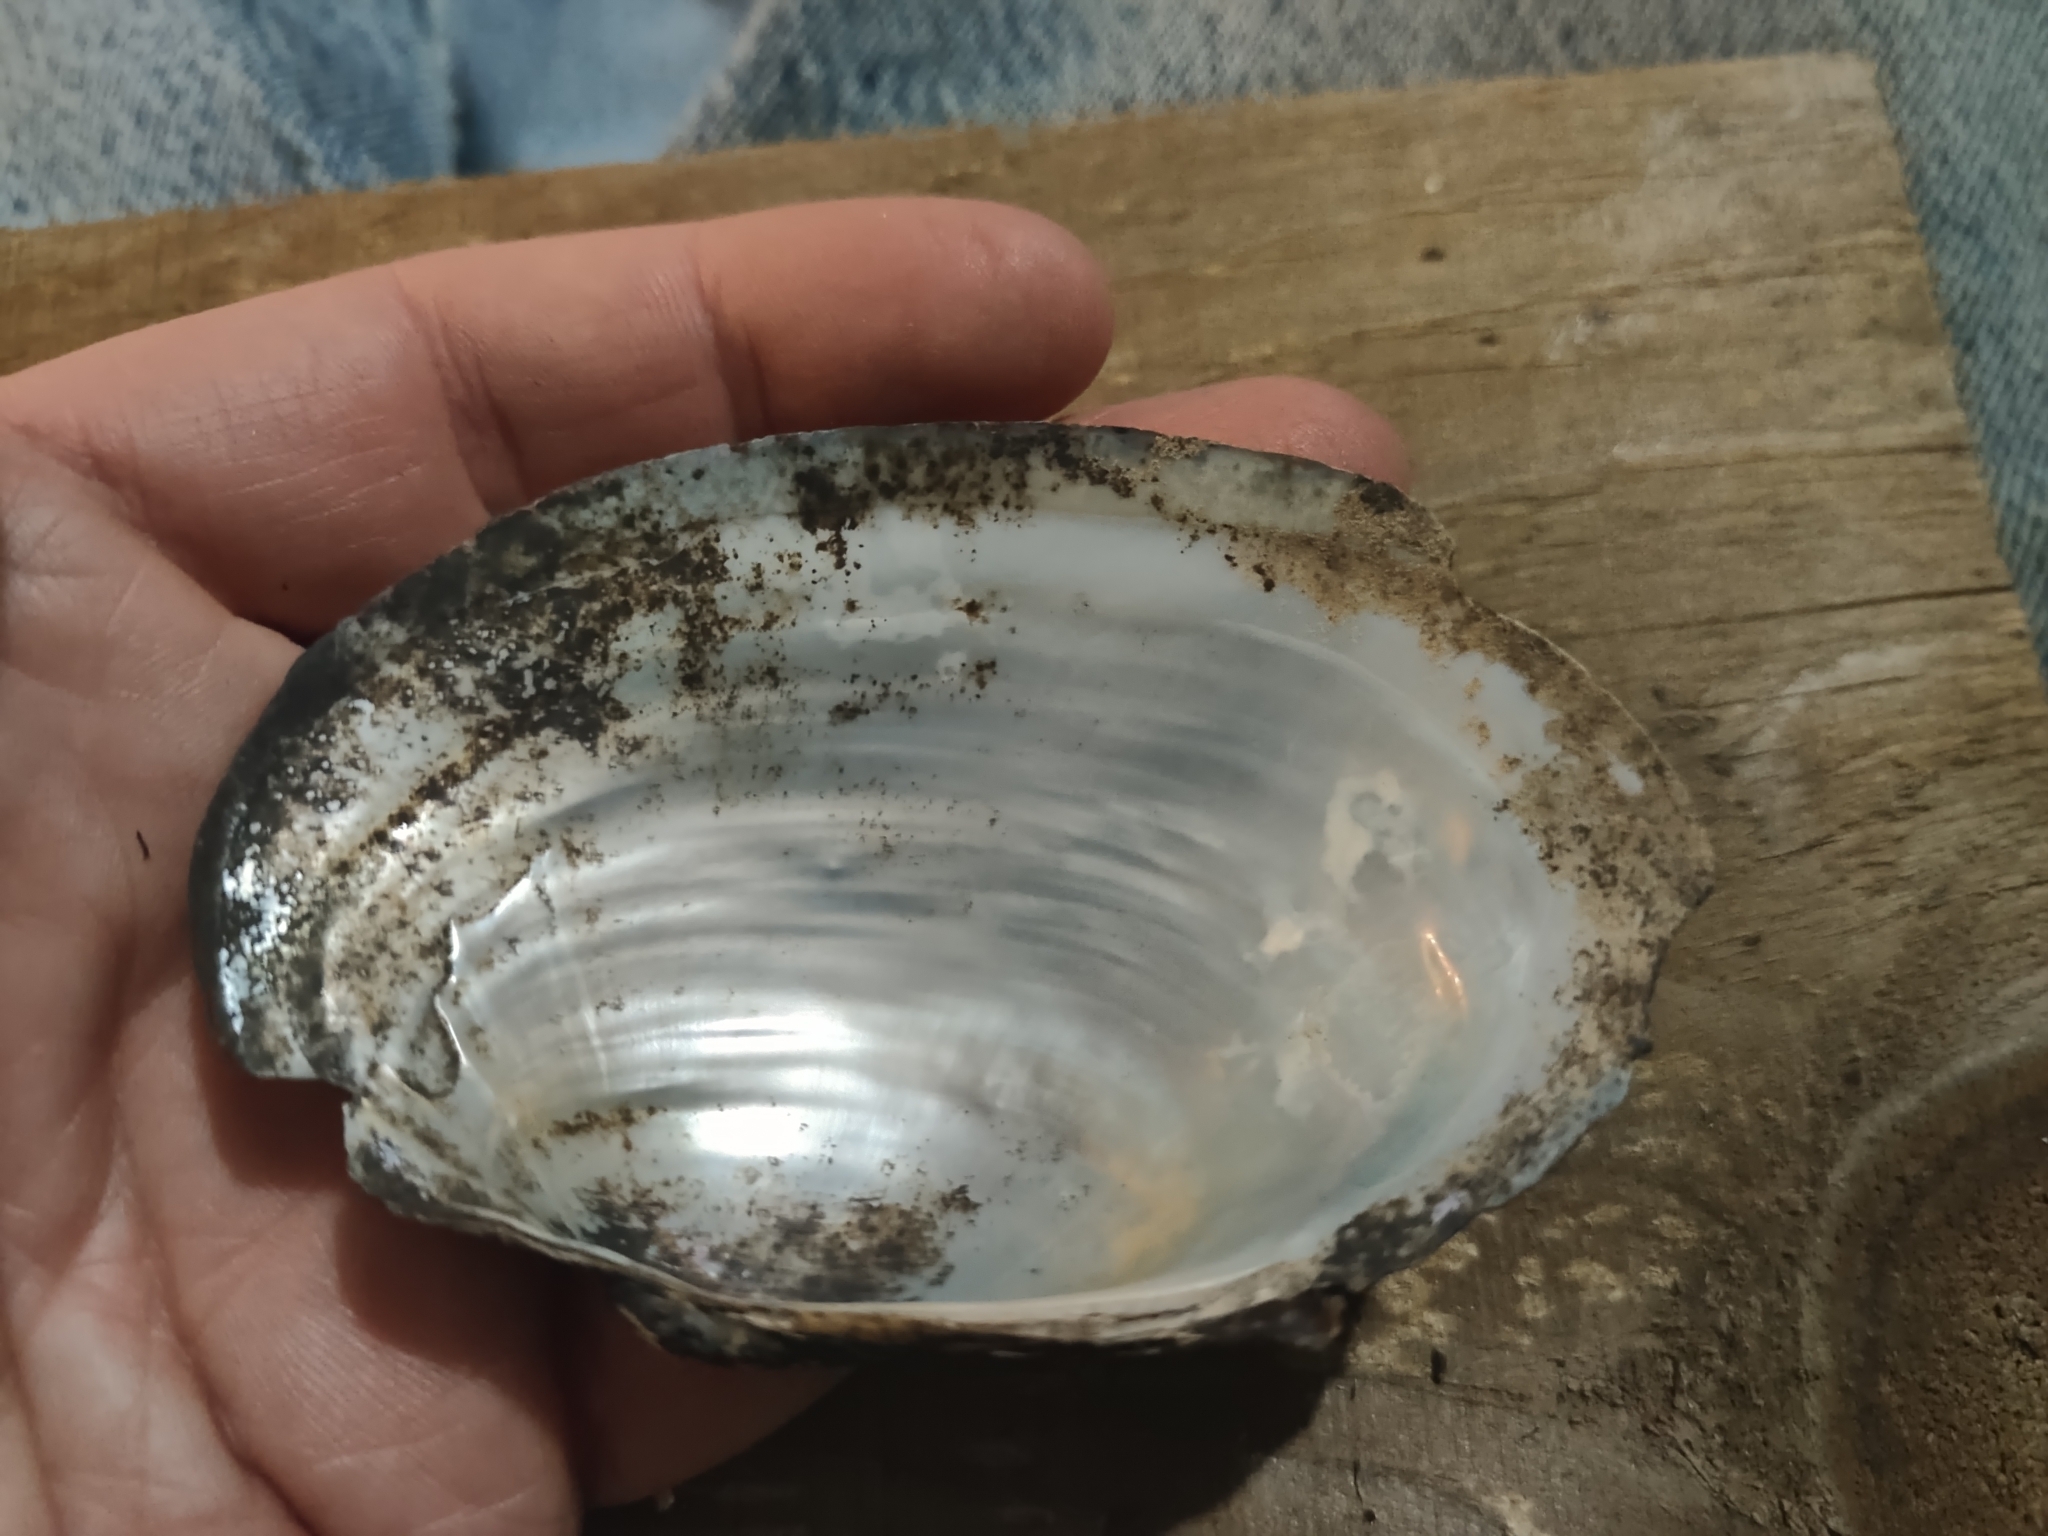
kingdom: Animalia
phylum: Mollusca
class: Bivalvia
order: Unionida
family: Unionidae
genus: Pyganodon
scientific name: Pyganodon grandis
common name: Giant floater
